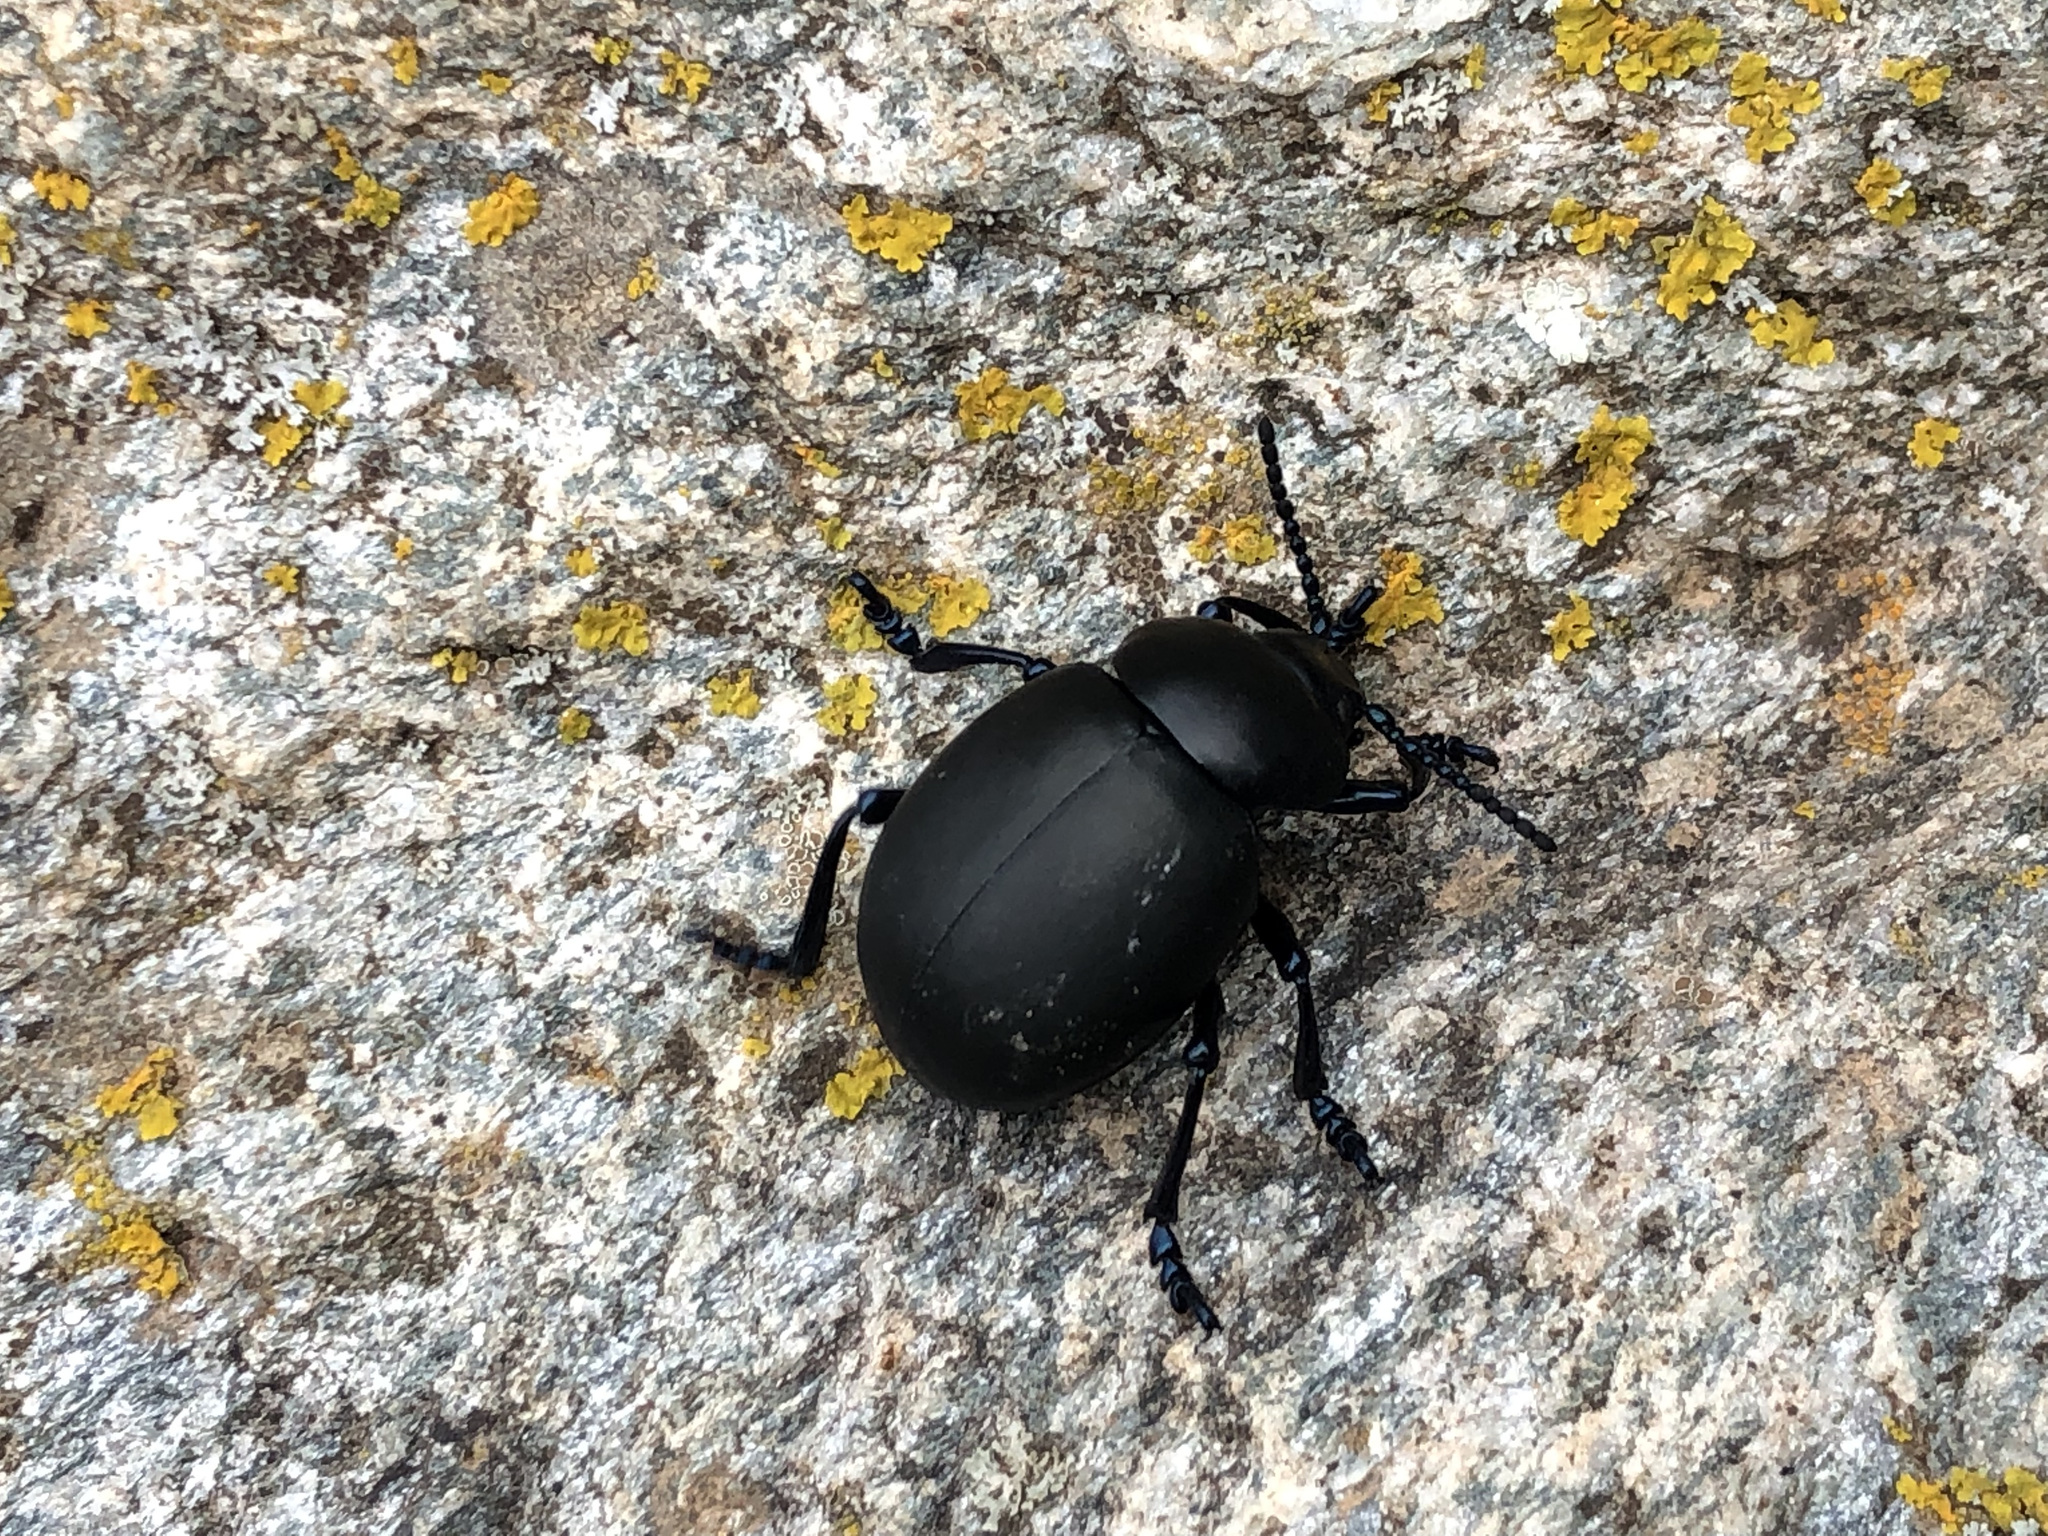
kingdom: Animalia
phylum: Arthropoda
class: Insecta
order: Coleoptera
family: Chrysomelidae
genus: Timarcha
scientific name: Timarcha tenebricosa
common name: Bloody-nosed beetle
